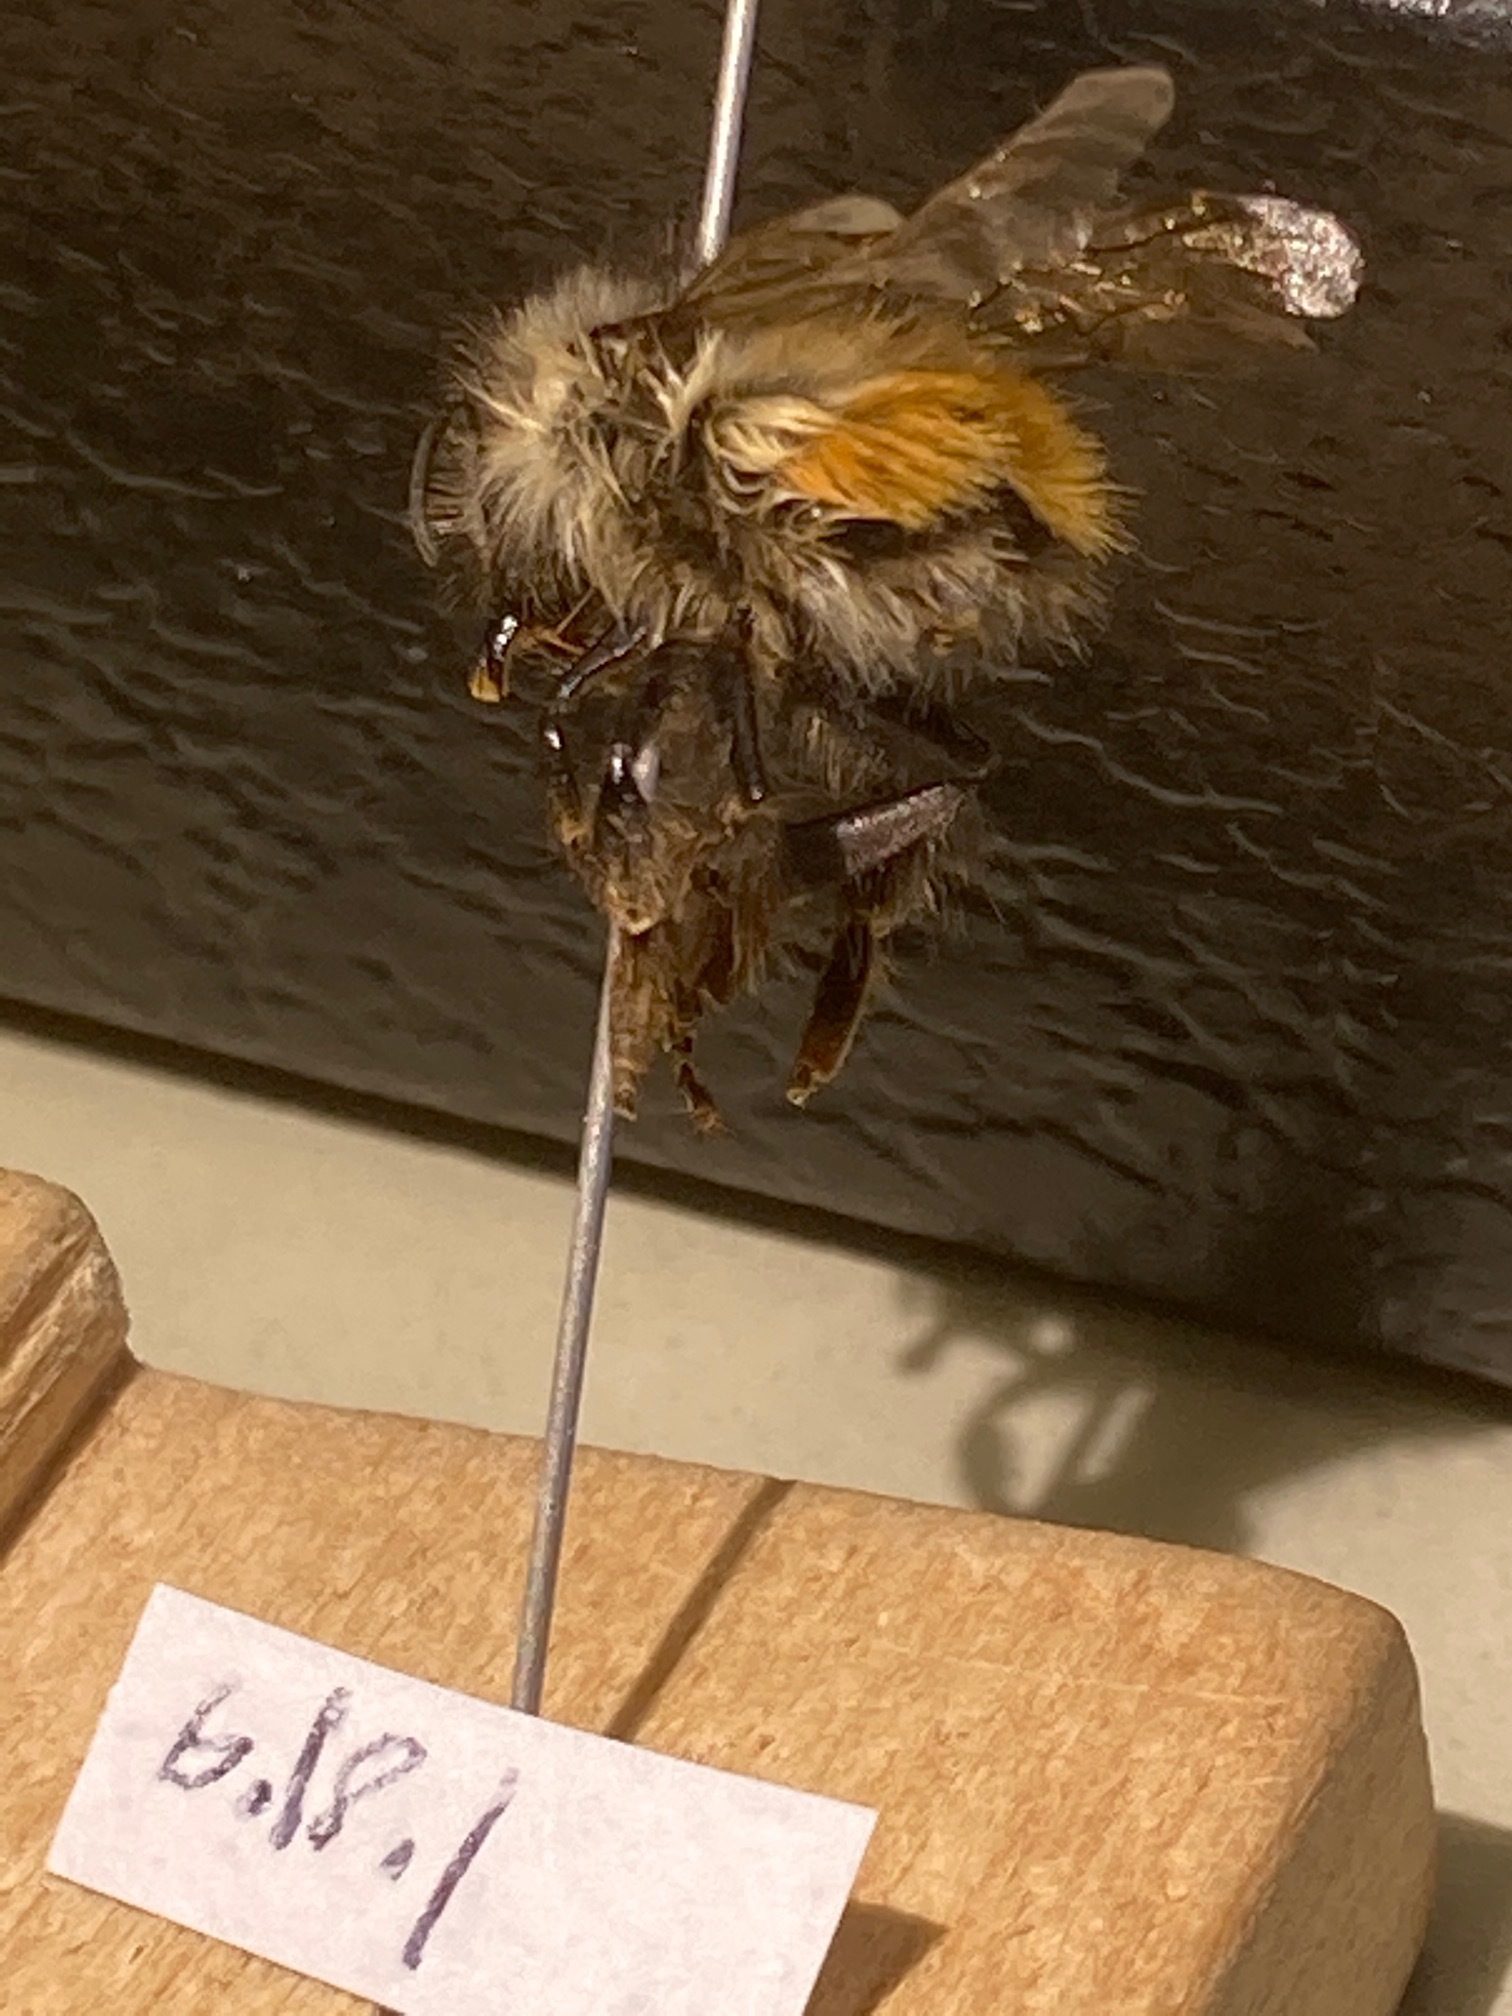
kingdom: Animalia
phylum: Arthropoda
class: Insecta
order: Hymenoptera
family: Apidae
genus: Bombus
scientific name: Bombus flavifrons
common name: Yellow head bumble bee
